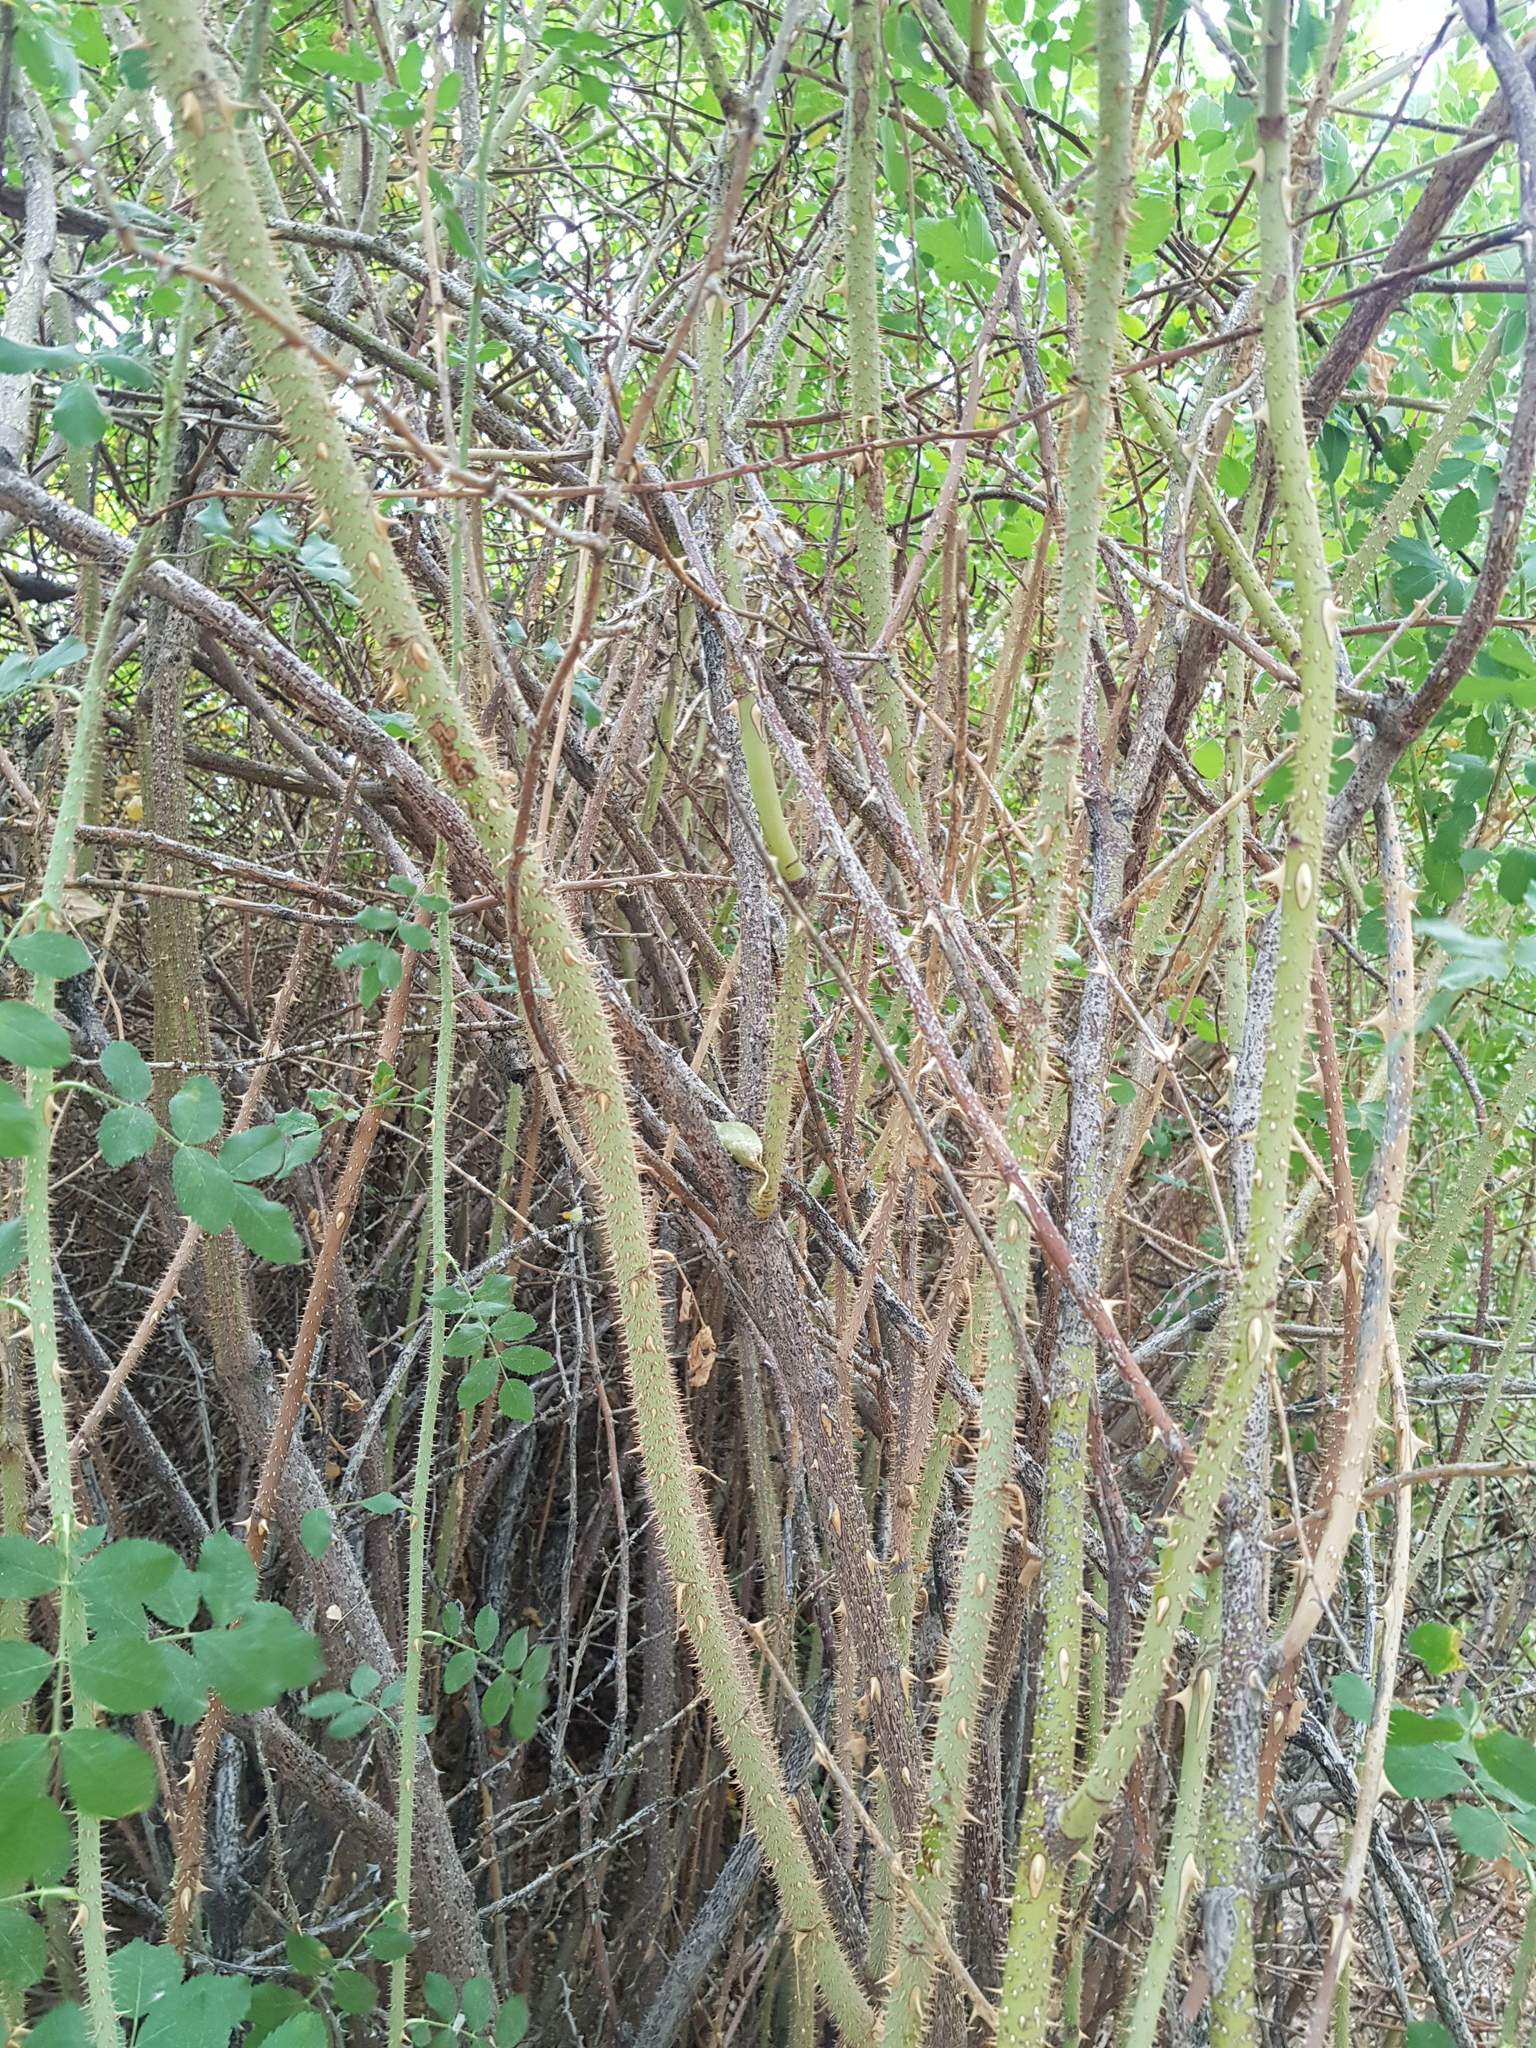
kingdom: Plantae
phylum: Tracheophyta
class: Magnoliopsida
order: Malpighiales
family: Salicaceae
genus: Populus
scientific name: Populus laurifolia
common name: Laurel-leaf poplar
